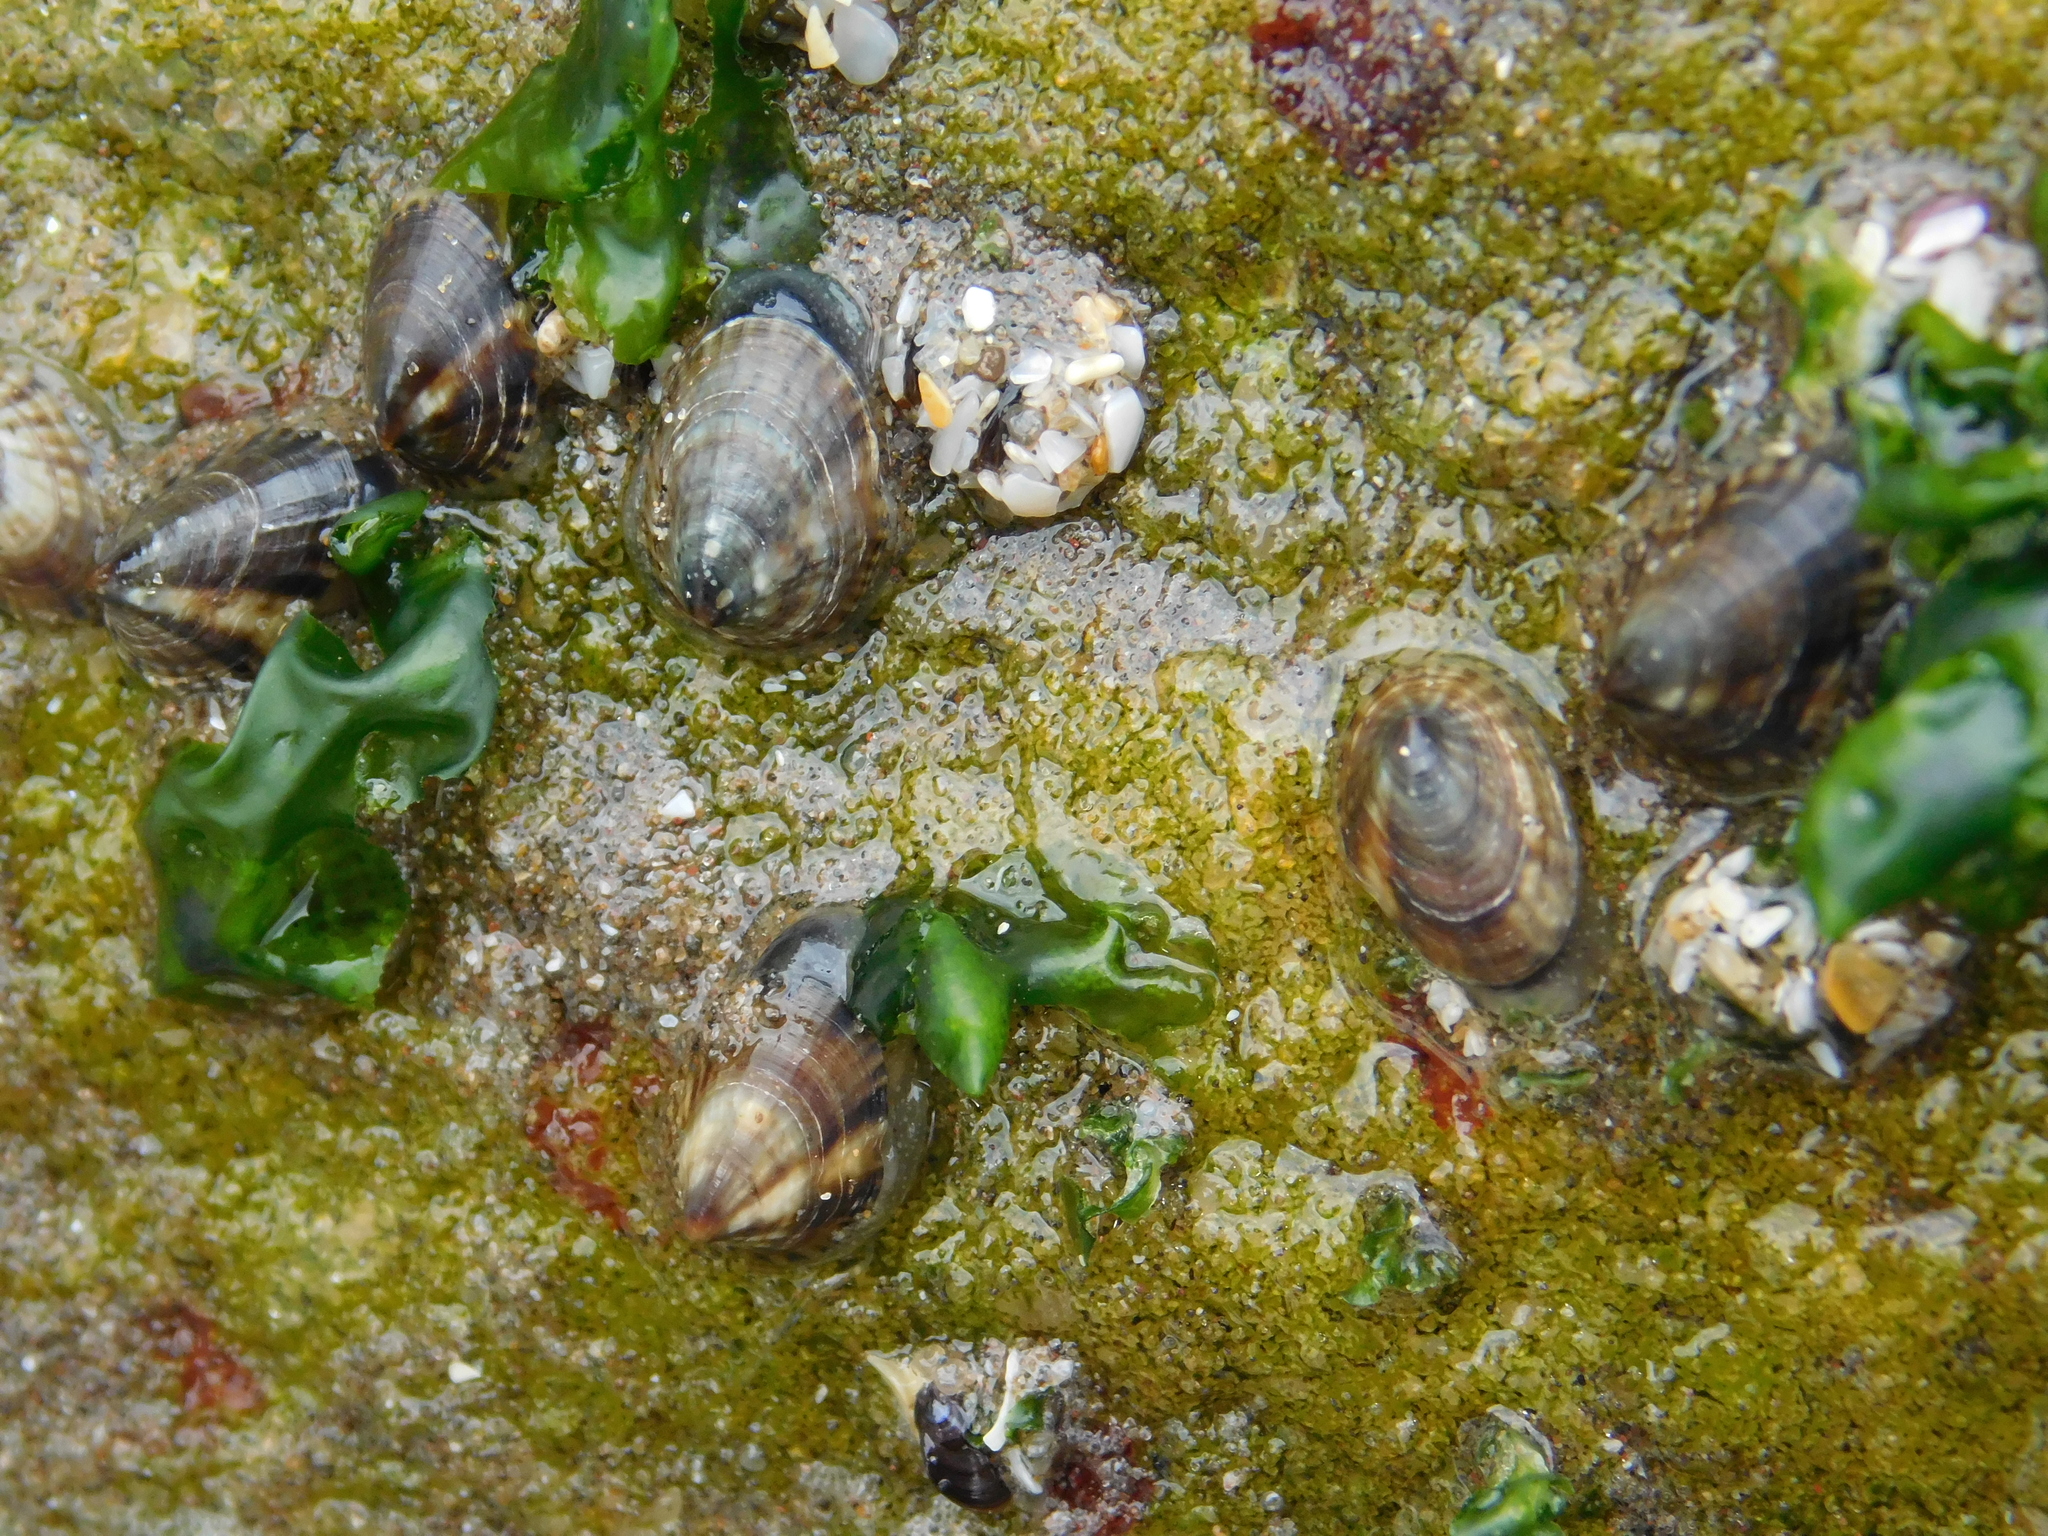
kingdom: Animalia
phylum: Mollusca
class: Gastropoda
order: Siphonariida
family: Siphonariidae
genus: Siphonaria
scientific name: Siphonaria lessonii
